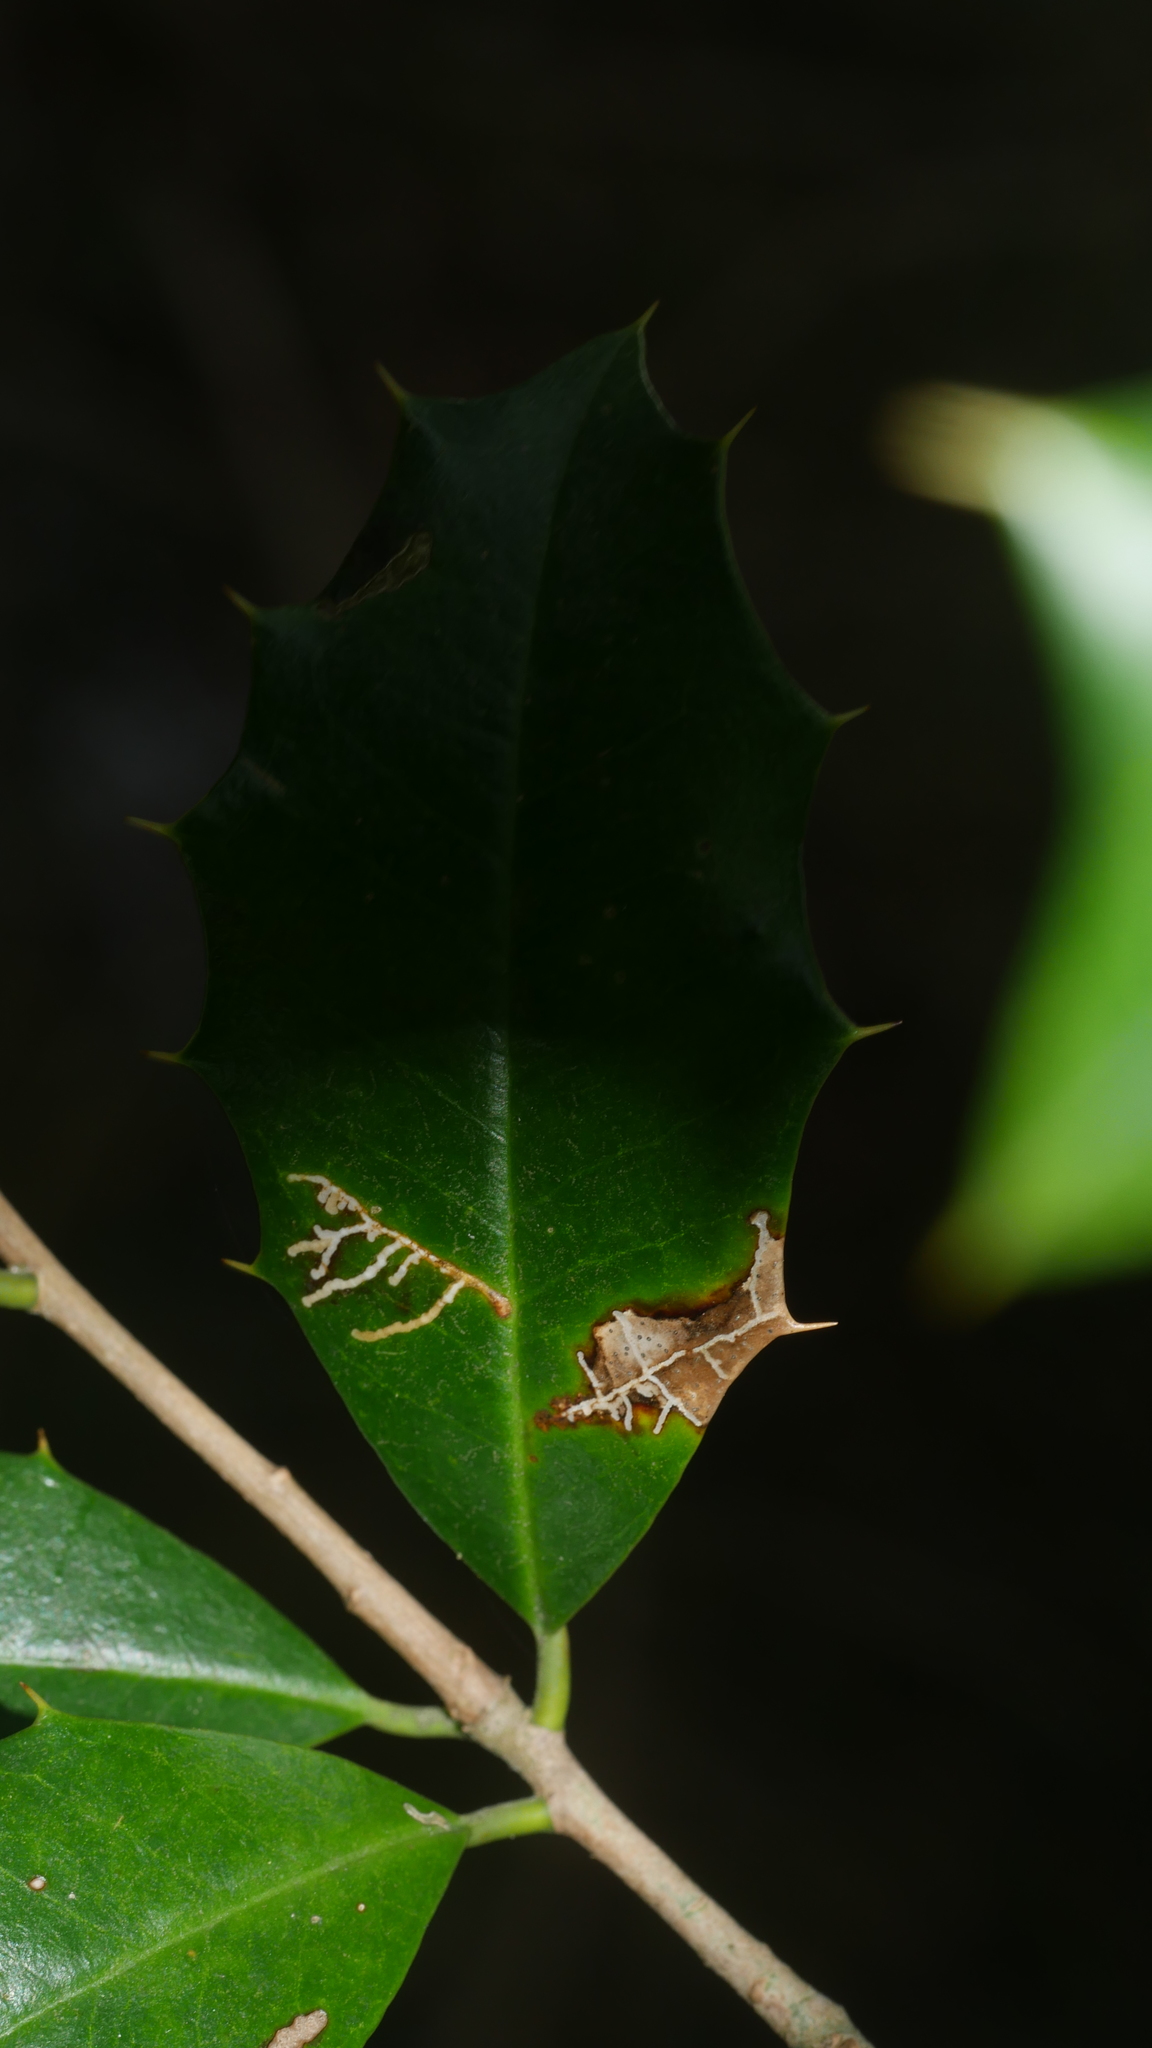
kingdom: Animalia
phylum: Arthropoda
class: Insecta
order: Lepidoptera
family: Tortricidae
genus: Rhopobota
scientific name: Rhopobota
